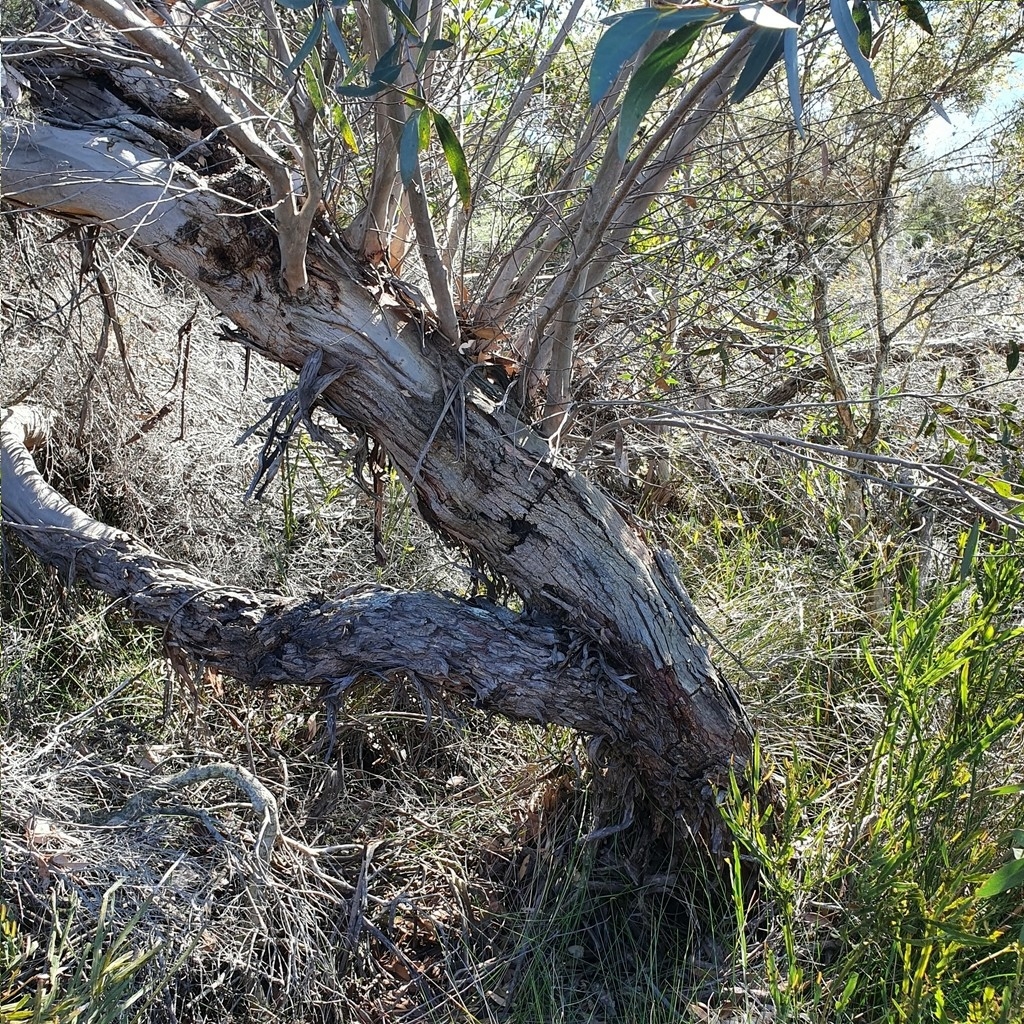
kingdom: Plantae
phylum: Tracheophyta
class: Magnoliopsida
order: Myrtales
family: Myrtaceae
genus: Eucalyptus
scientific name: Eucalyptus burgessiana
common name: Falconbridge mallee-ash
